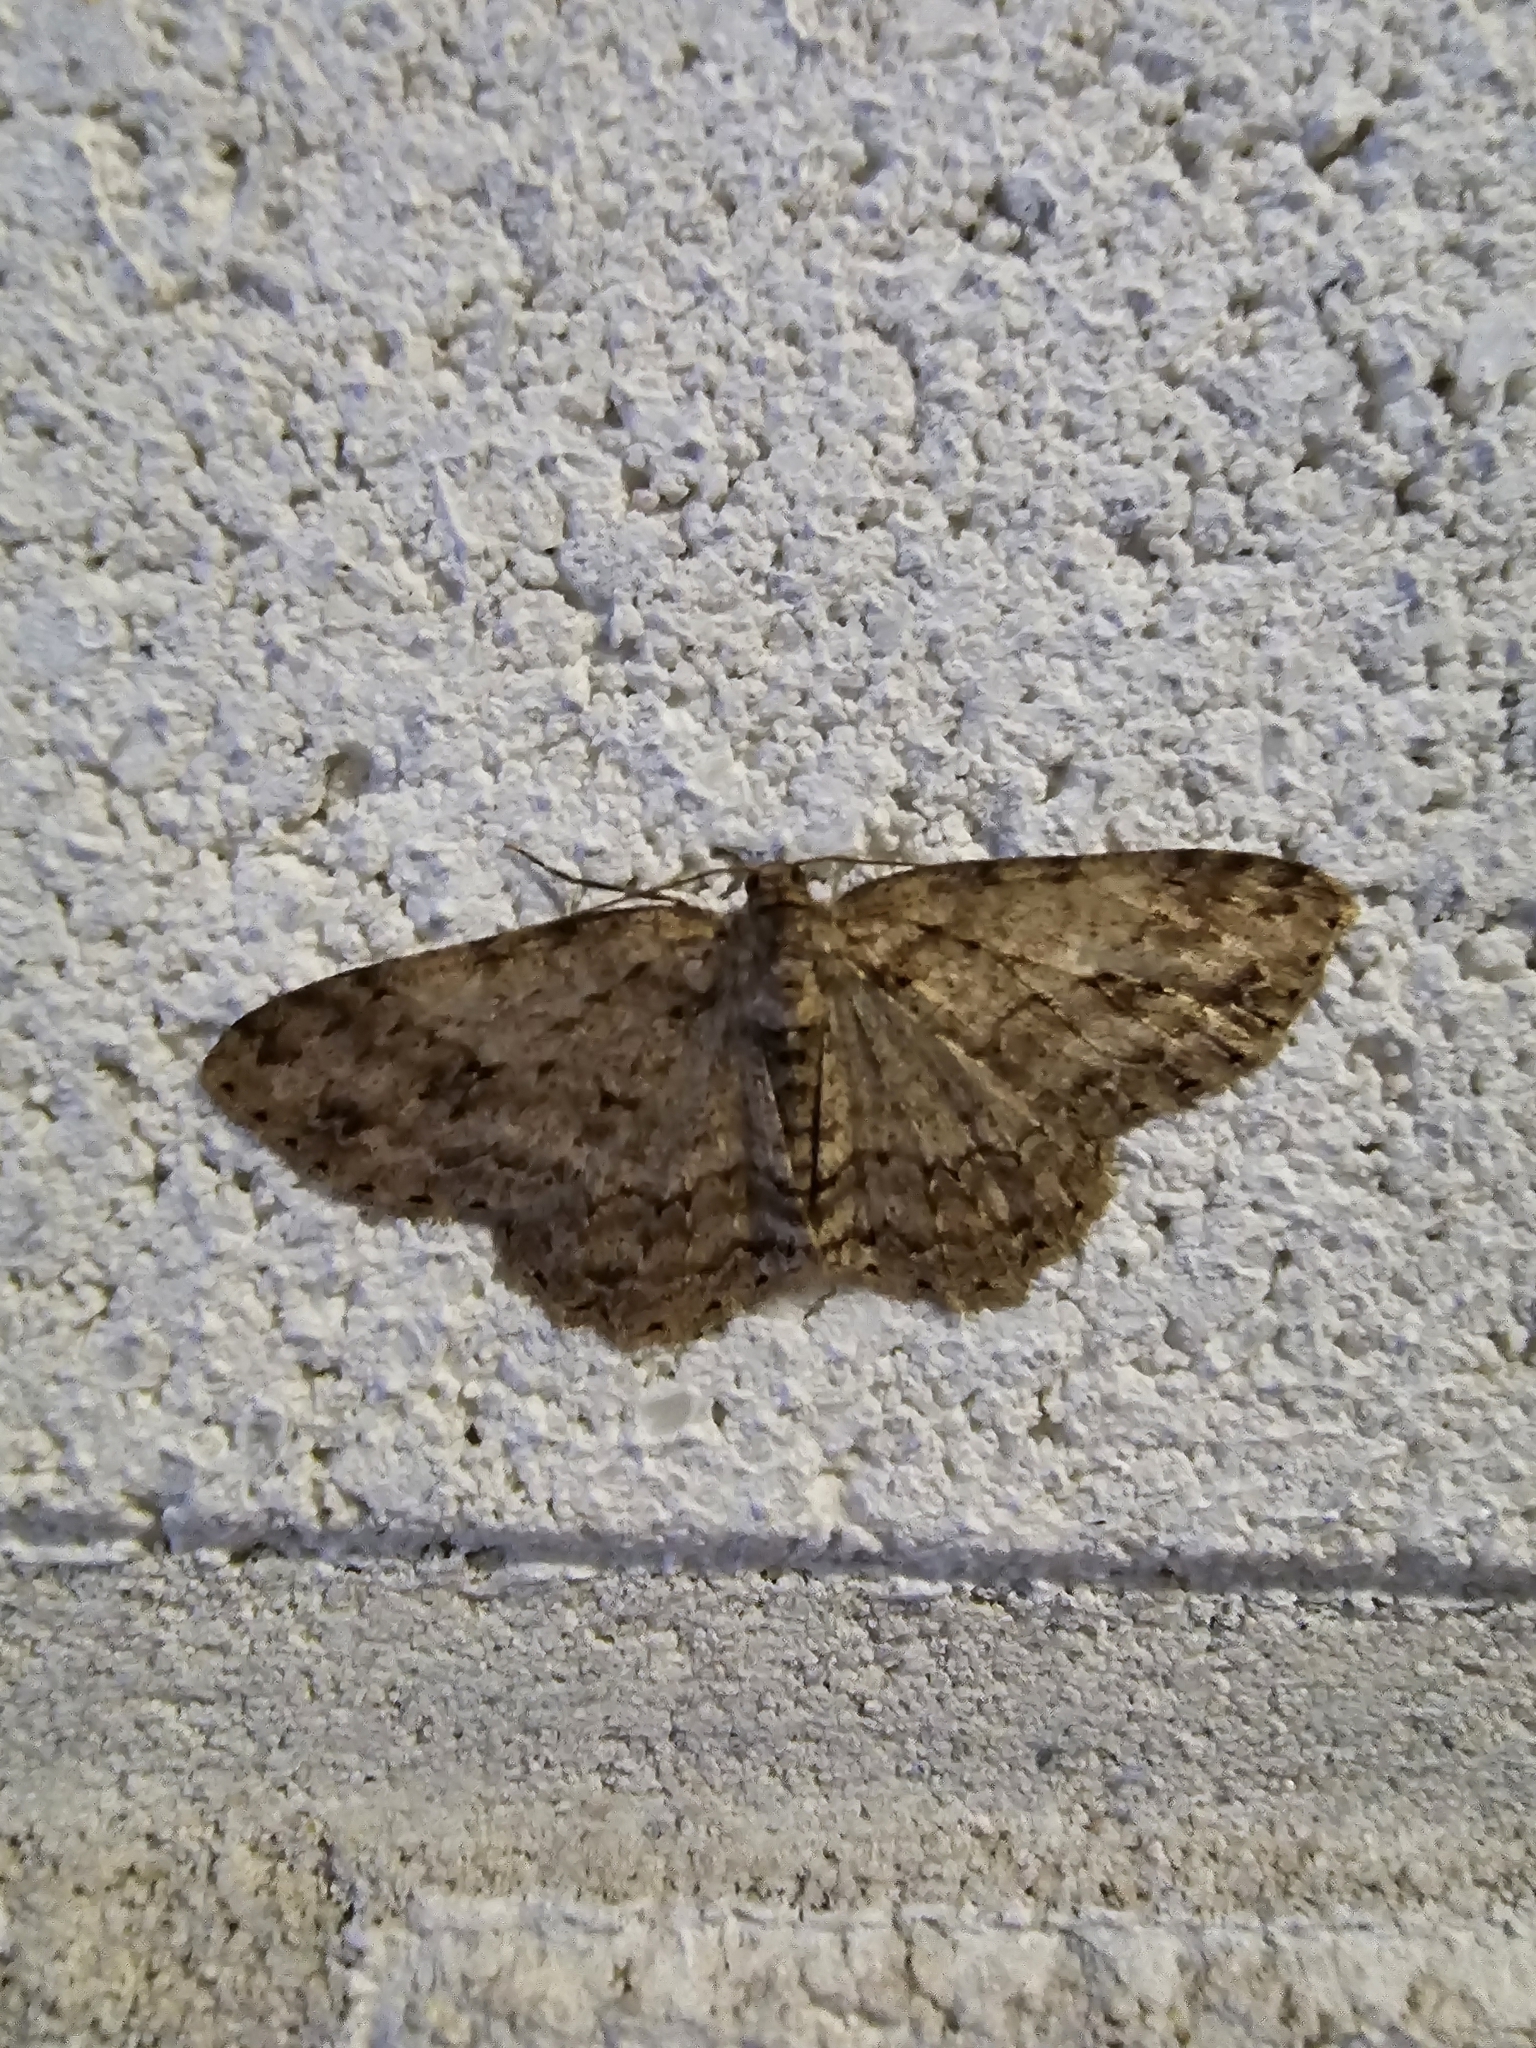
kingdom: Animalia
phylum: Arthropoda
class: Insecta
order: Lepidoptera
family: Geometridae
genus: Ectropis
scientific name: Ectropis crepuscularia
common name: Engrailed
